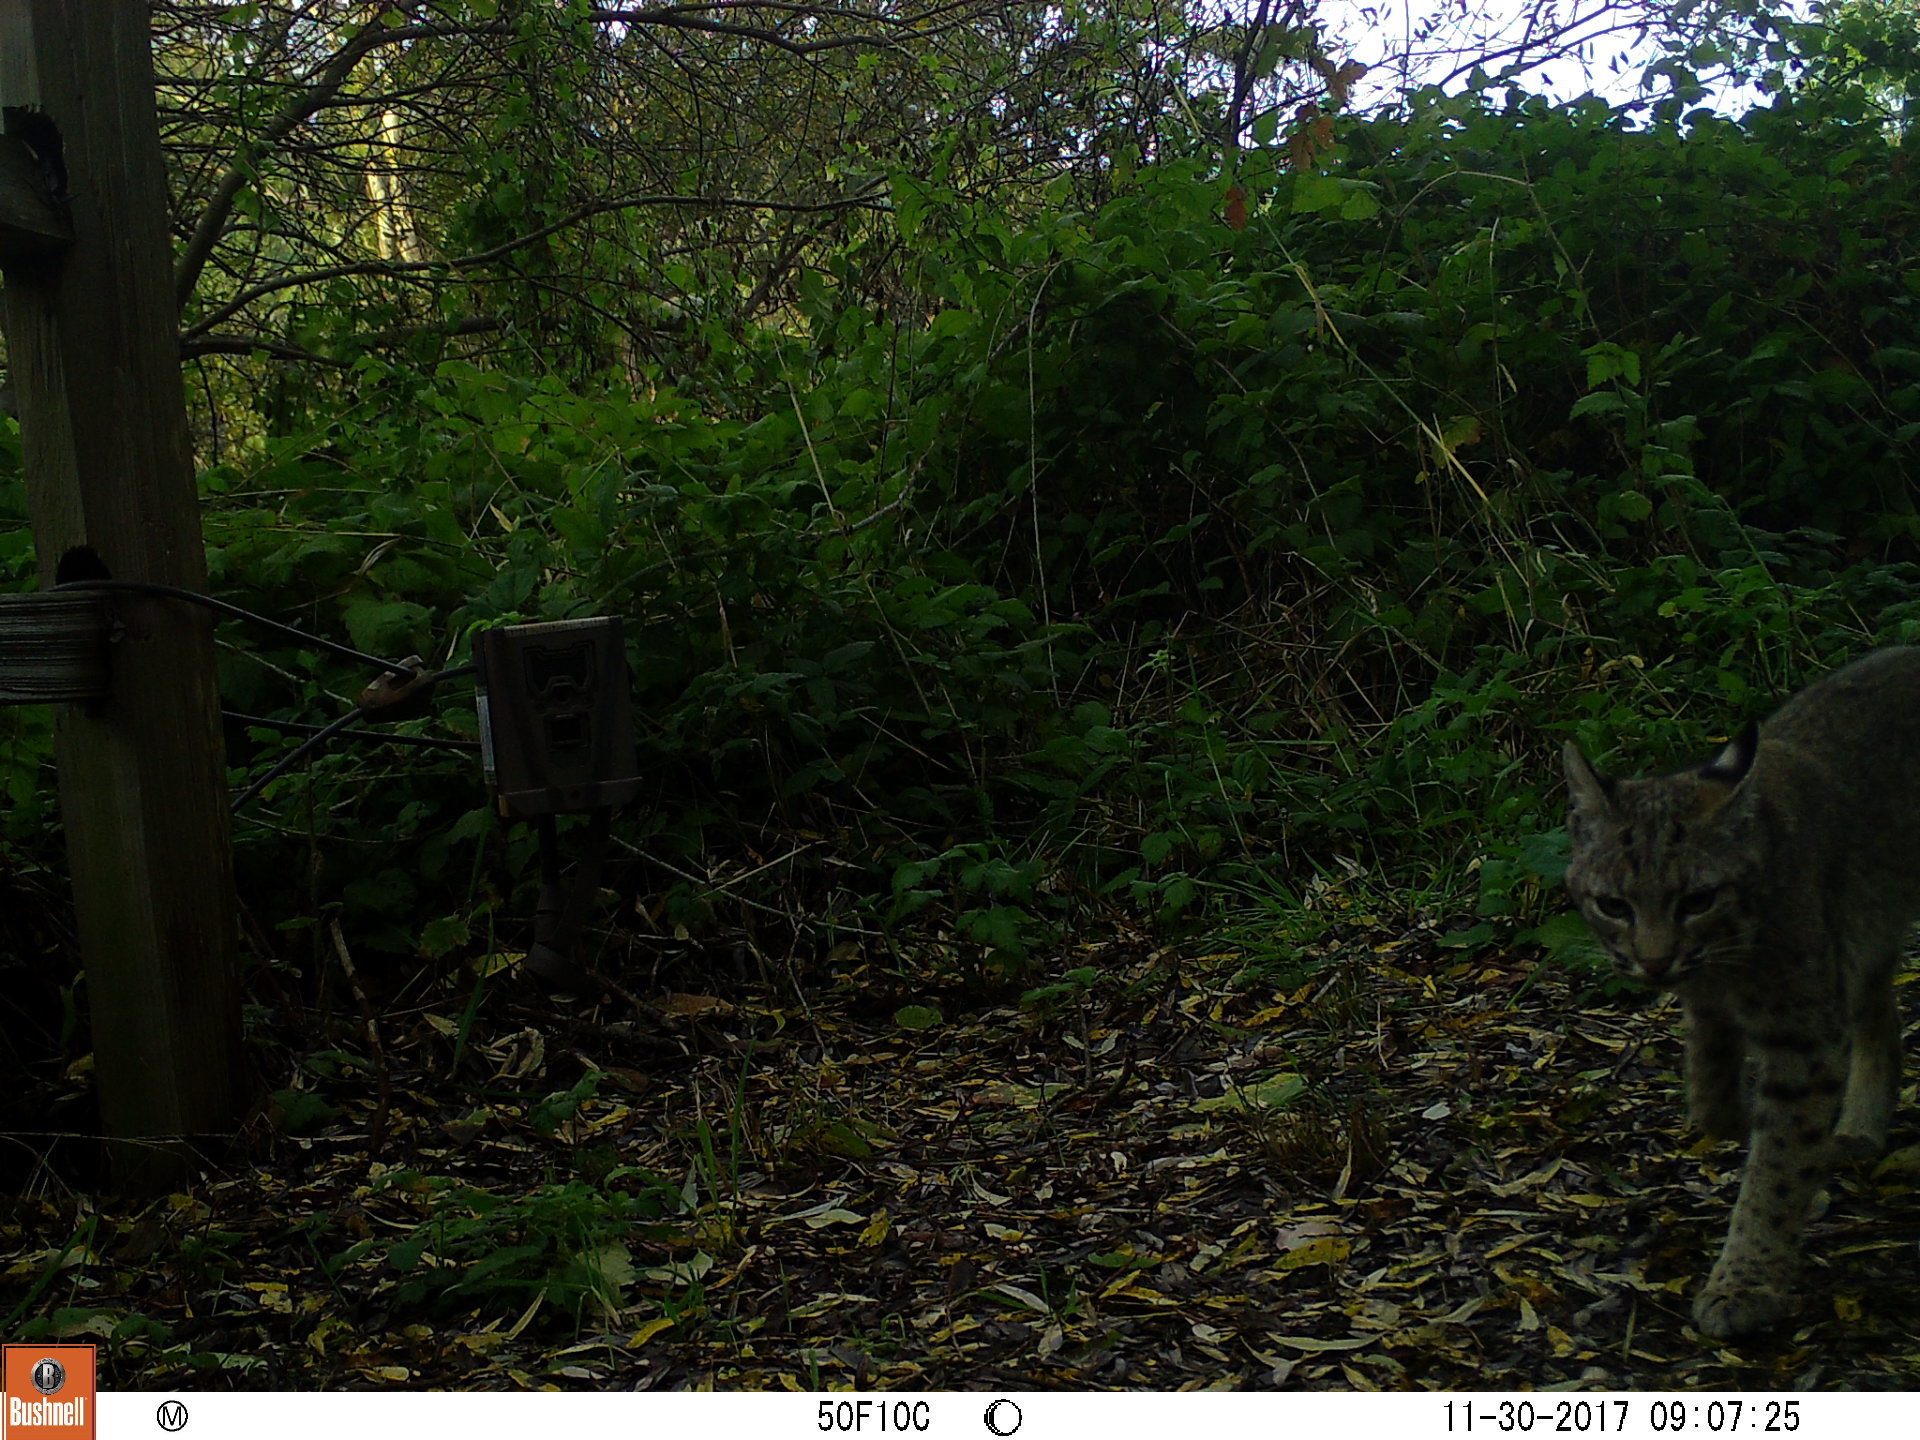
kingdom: Animalia
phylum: Chordata
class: Mammalia
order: Carnivora
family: Felidae
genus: Lynx
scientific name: Lynx rufus
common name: Bobcat
